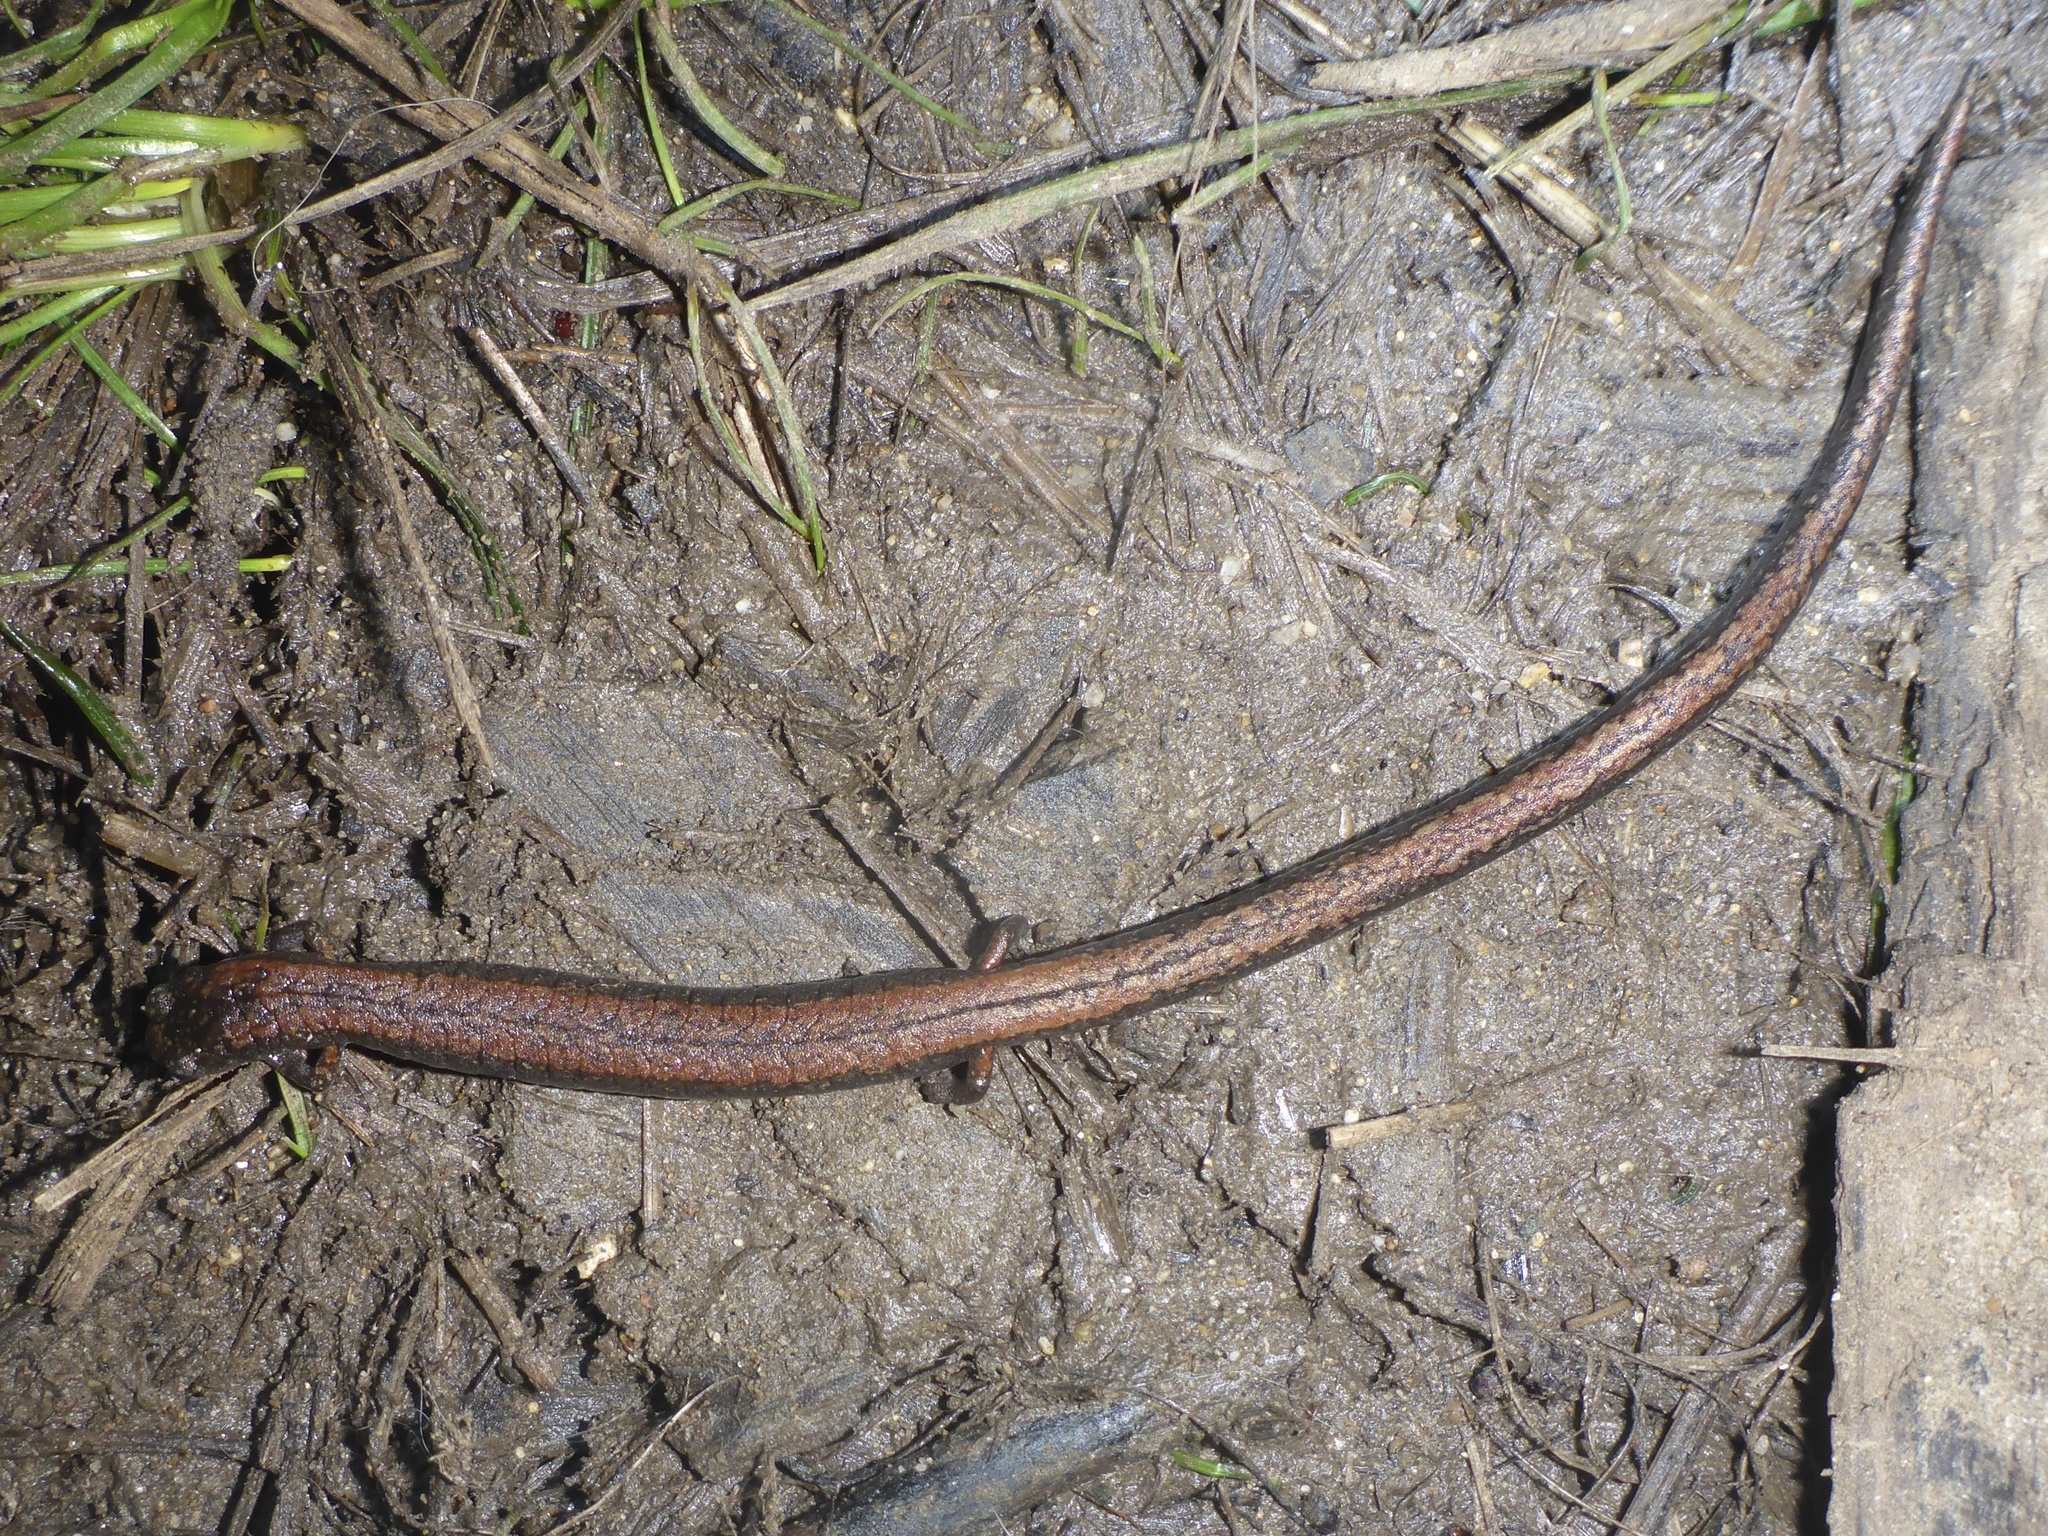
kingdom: Animalia
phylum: Chordata
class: Amphibia
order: Caudata
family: Plethodontidae
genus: Batrachoseps
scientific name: Batrachoseps attenuatus
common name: California slender salamander
